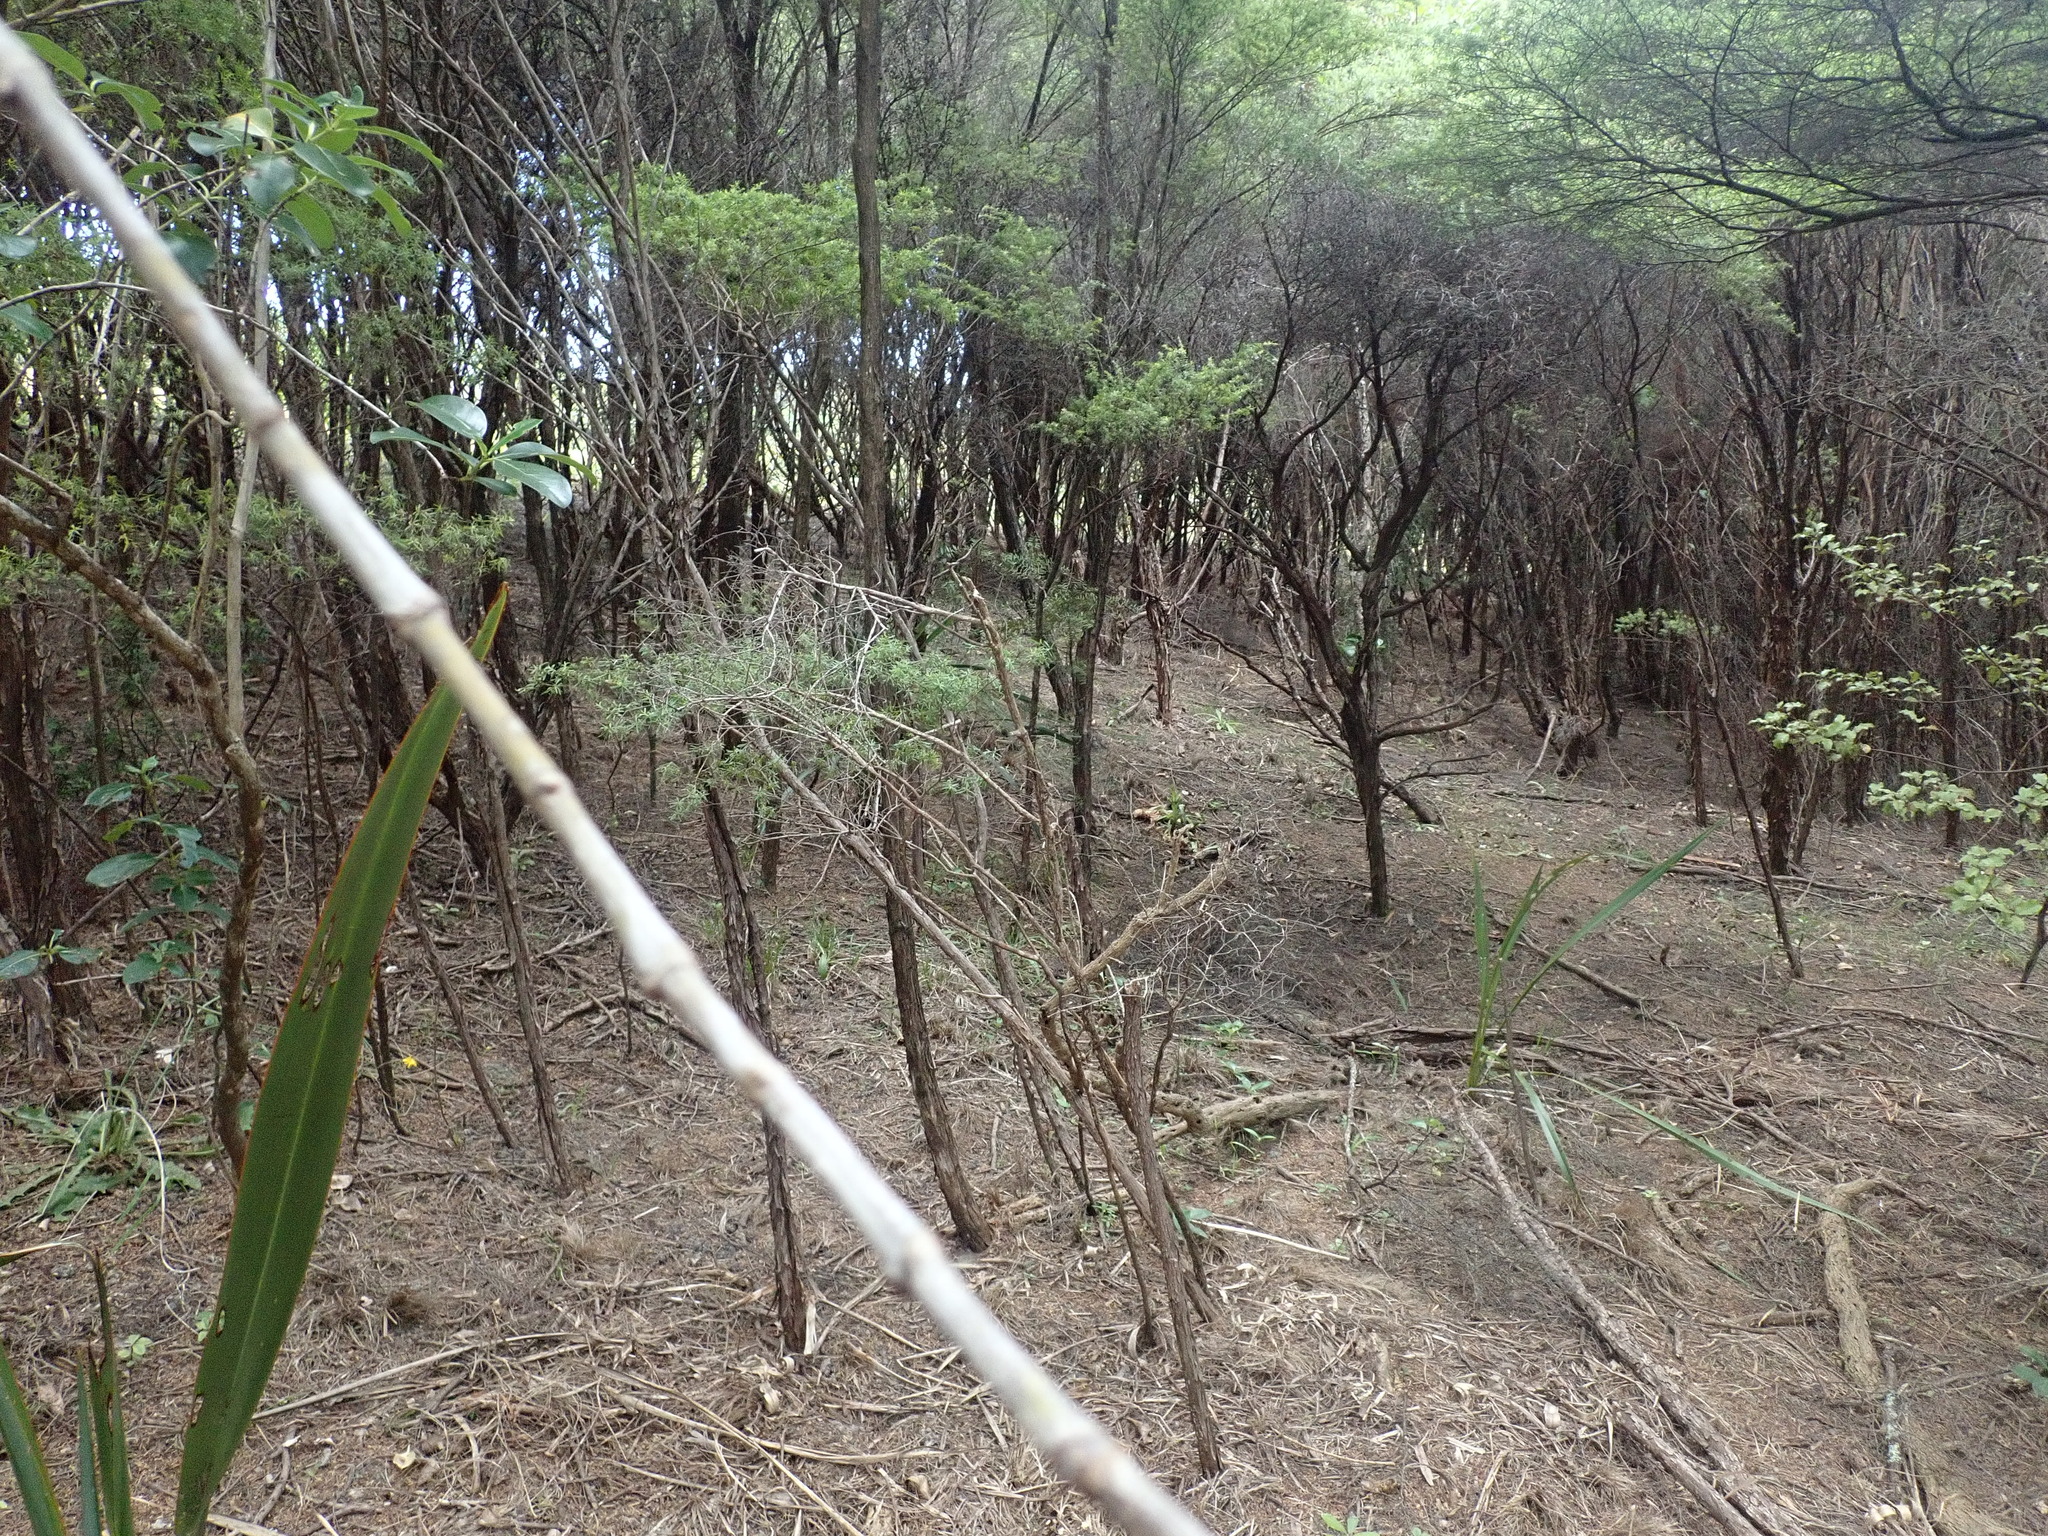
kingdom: Plantae
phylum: Tracheophyta
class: Liliopsida
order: Asparagales
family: Asphodelaceae
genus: Phormium
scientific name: Phormium tenax
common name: New zealand flax
